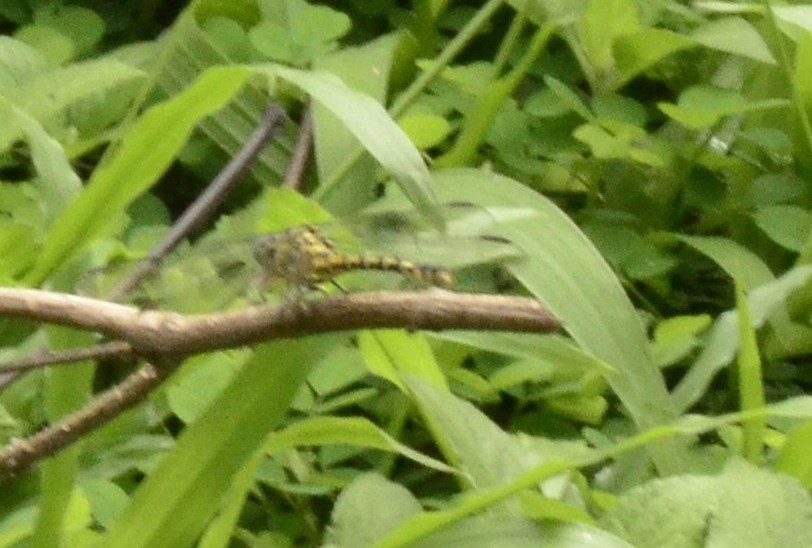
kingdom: Animalia
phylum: Arthropoda
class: Insecta
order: Odonata
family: Gomphidae
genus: Paragomphus
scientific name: Paragomphus lineatus
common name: Lined hooktail
